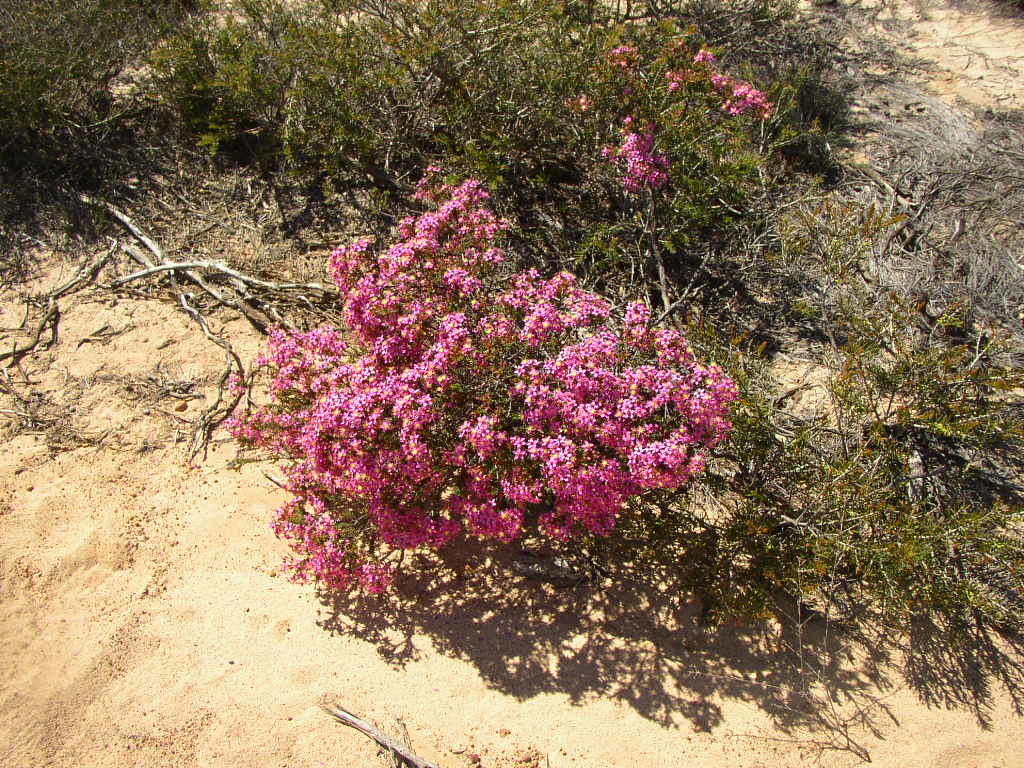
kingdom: Plantae
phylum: Tracheophyta
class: Magnoliopsida
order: Myrtales
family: Myrtaceae
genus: Calytrix
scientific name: Calytrix oldfieldii
